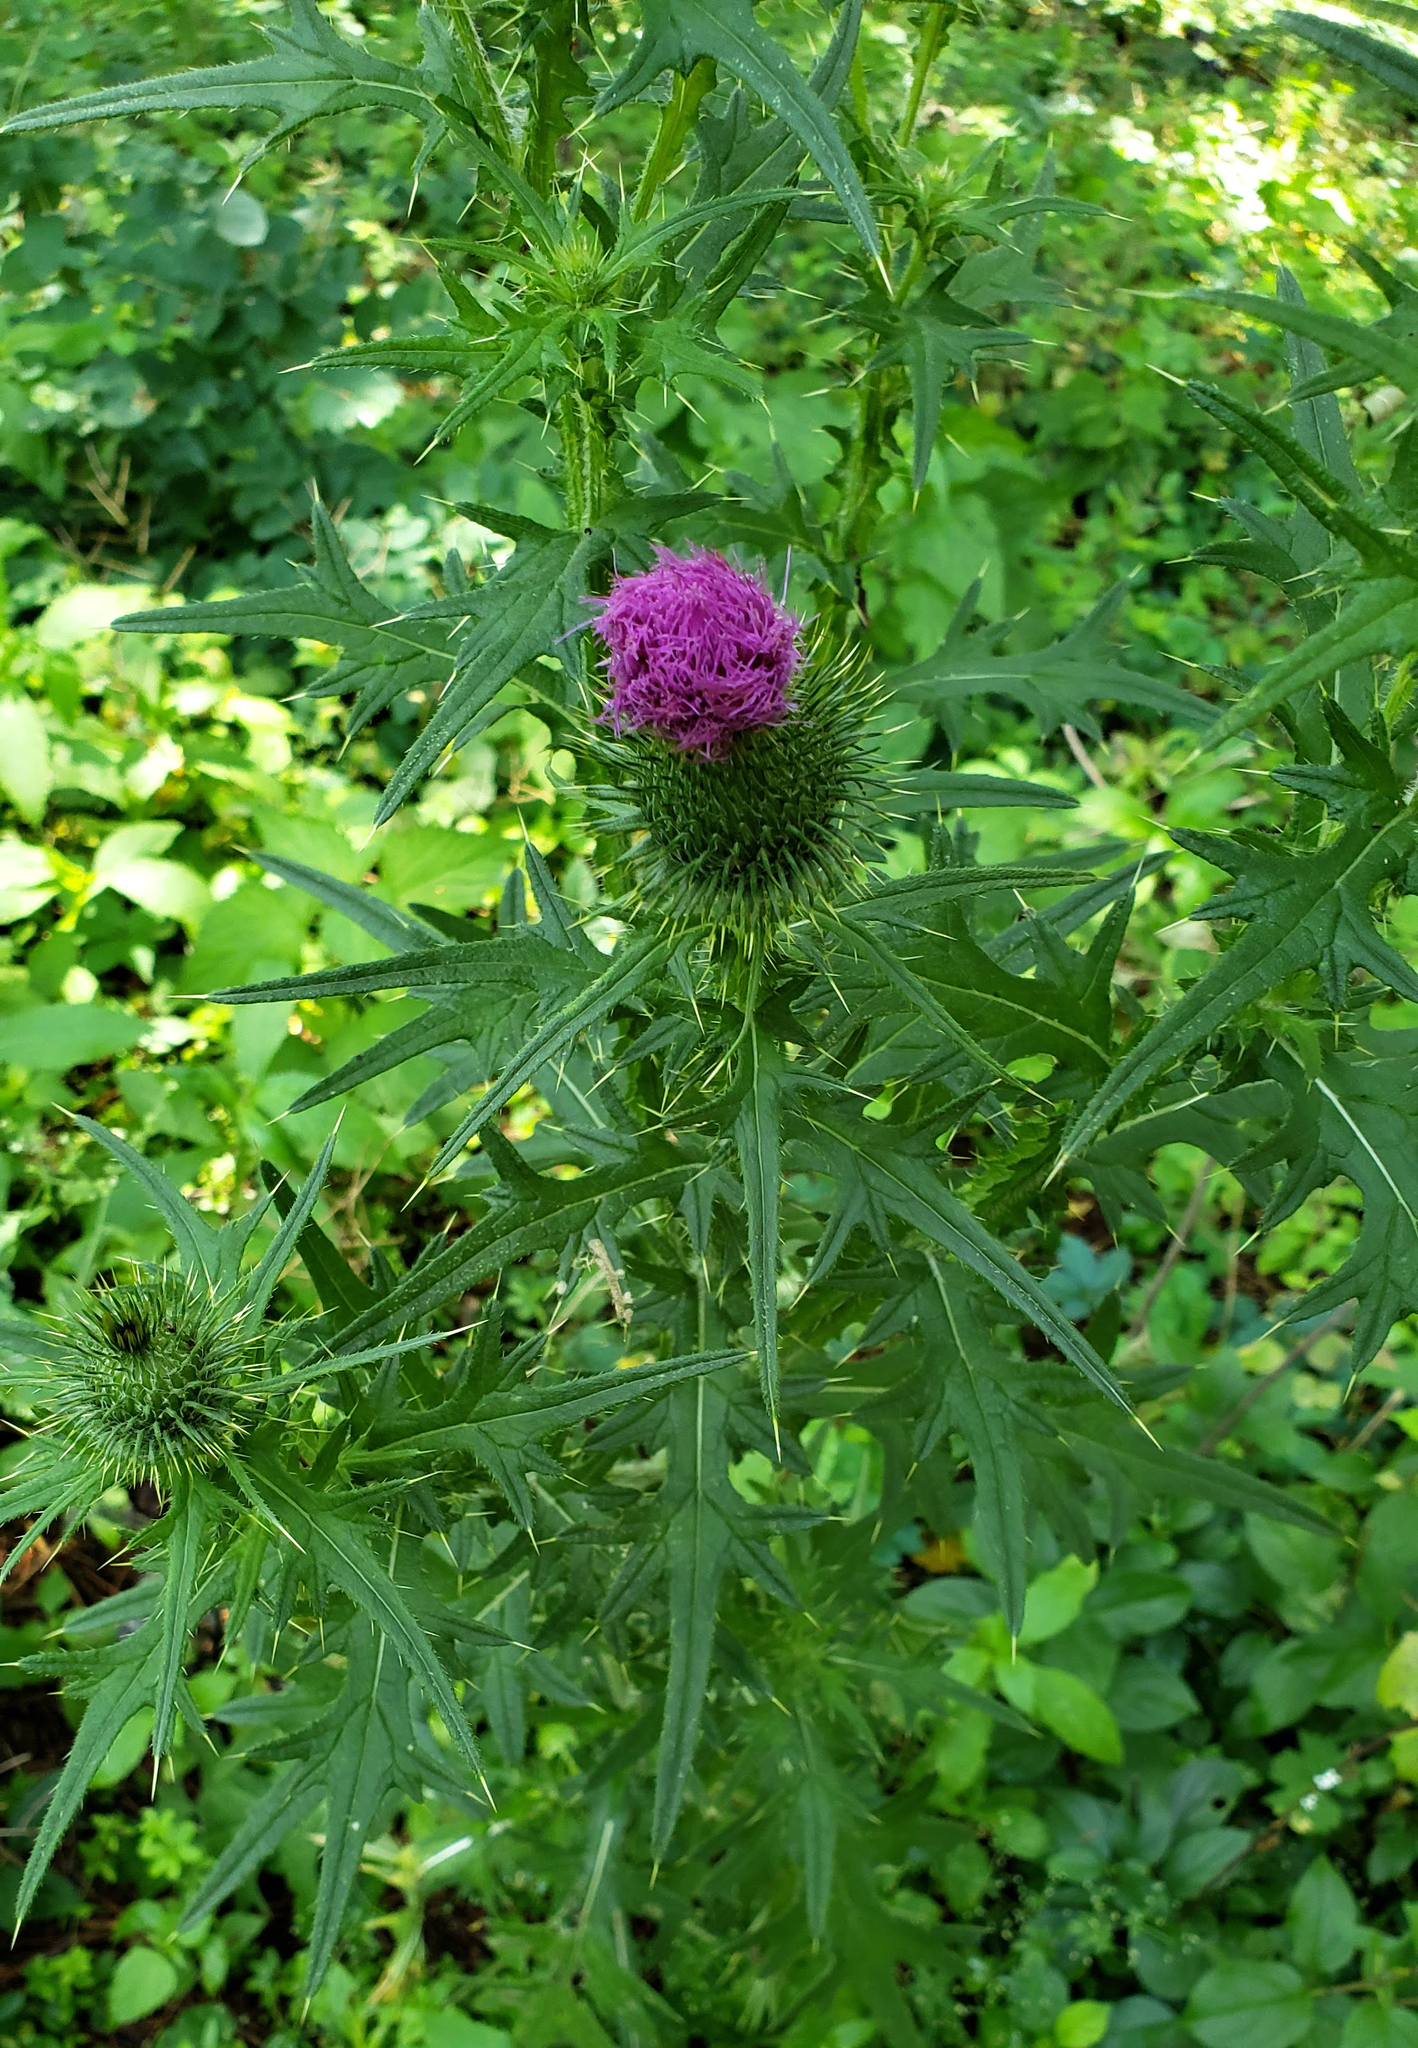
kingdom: Plantae
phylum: Tracheophyta
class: Magnoliopsida
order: Asterales
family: Asteraceae
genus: Cirsium
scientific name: Cirsium vulgare
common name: Bull thistle
